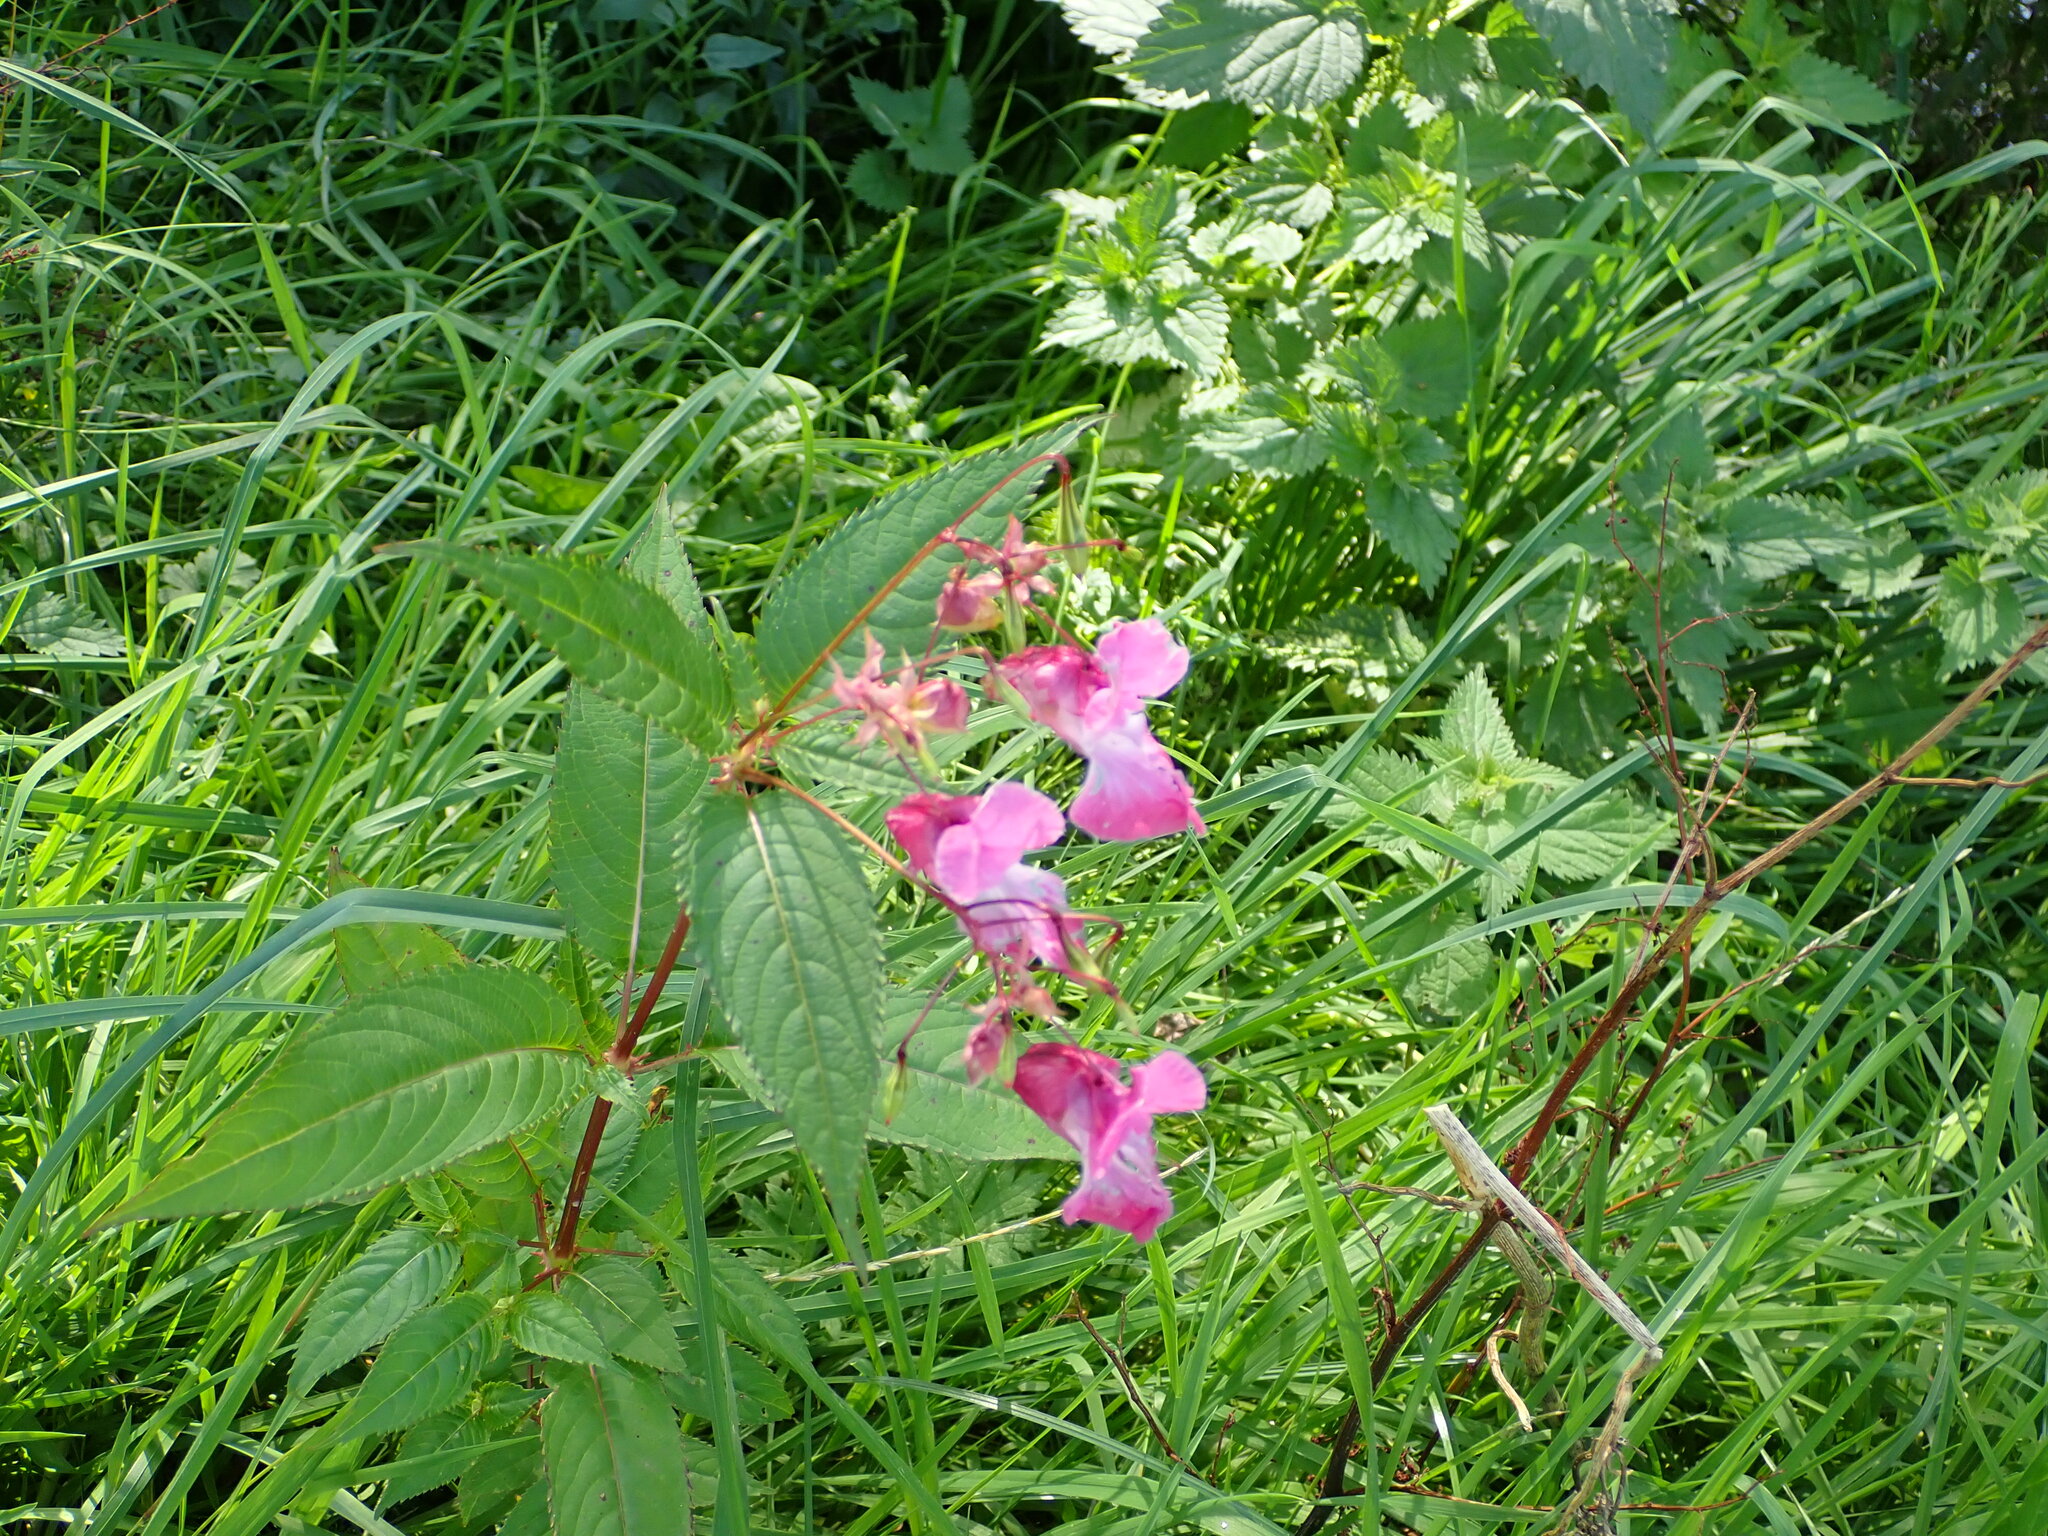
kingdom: Plantae
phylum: Tracheophyta
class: Magnoliopsida
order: Ericales
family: Balsaminaceae
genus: Impatiens
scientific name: Impatiens glandulifera
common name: Himalayan balsam
